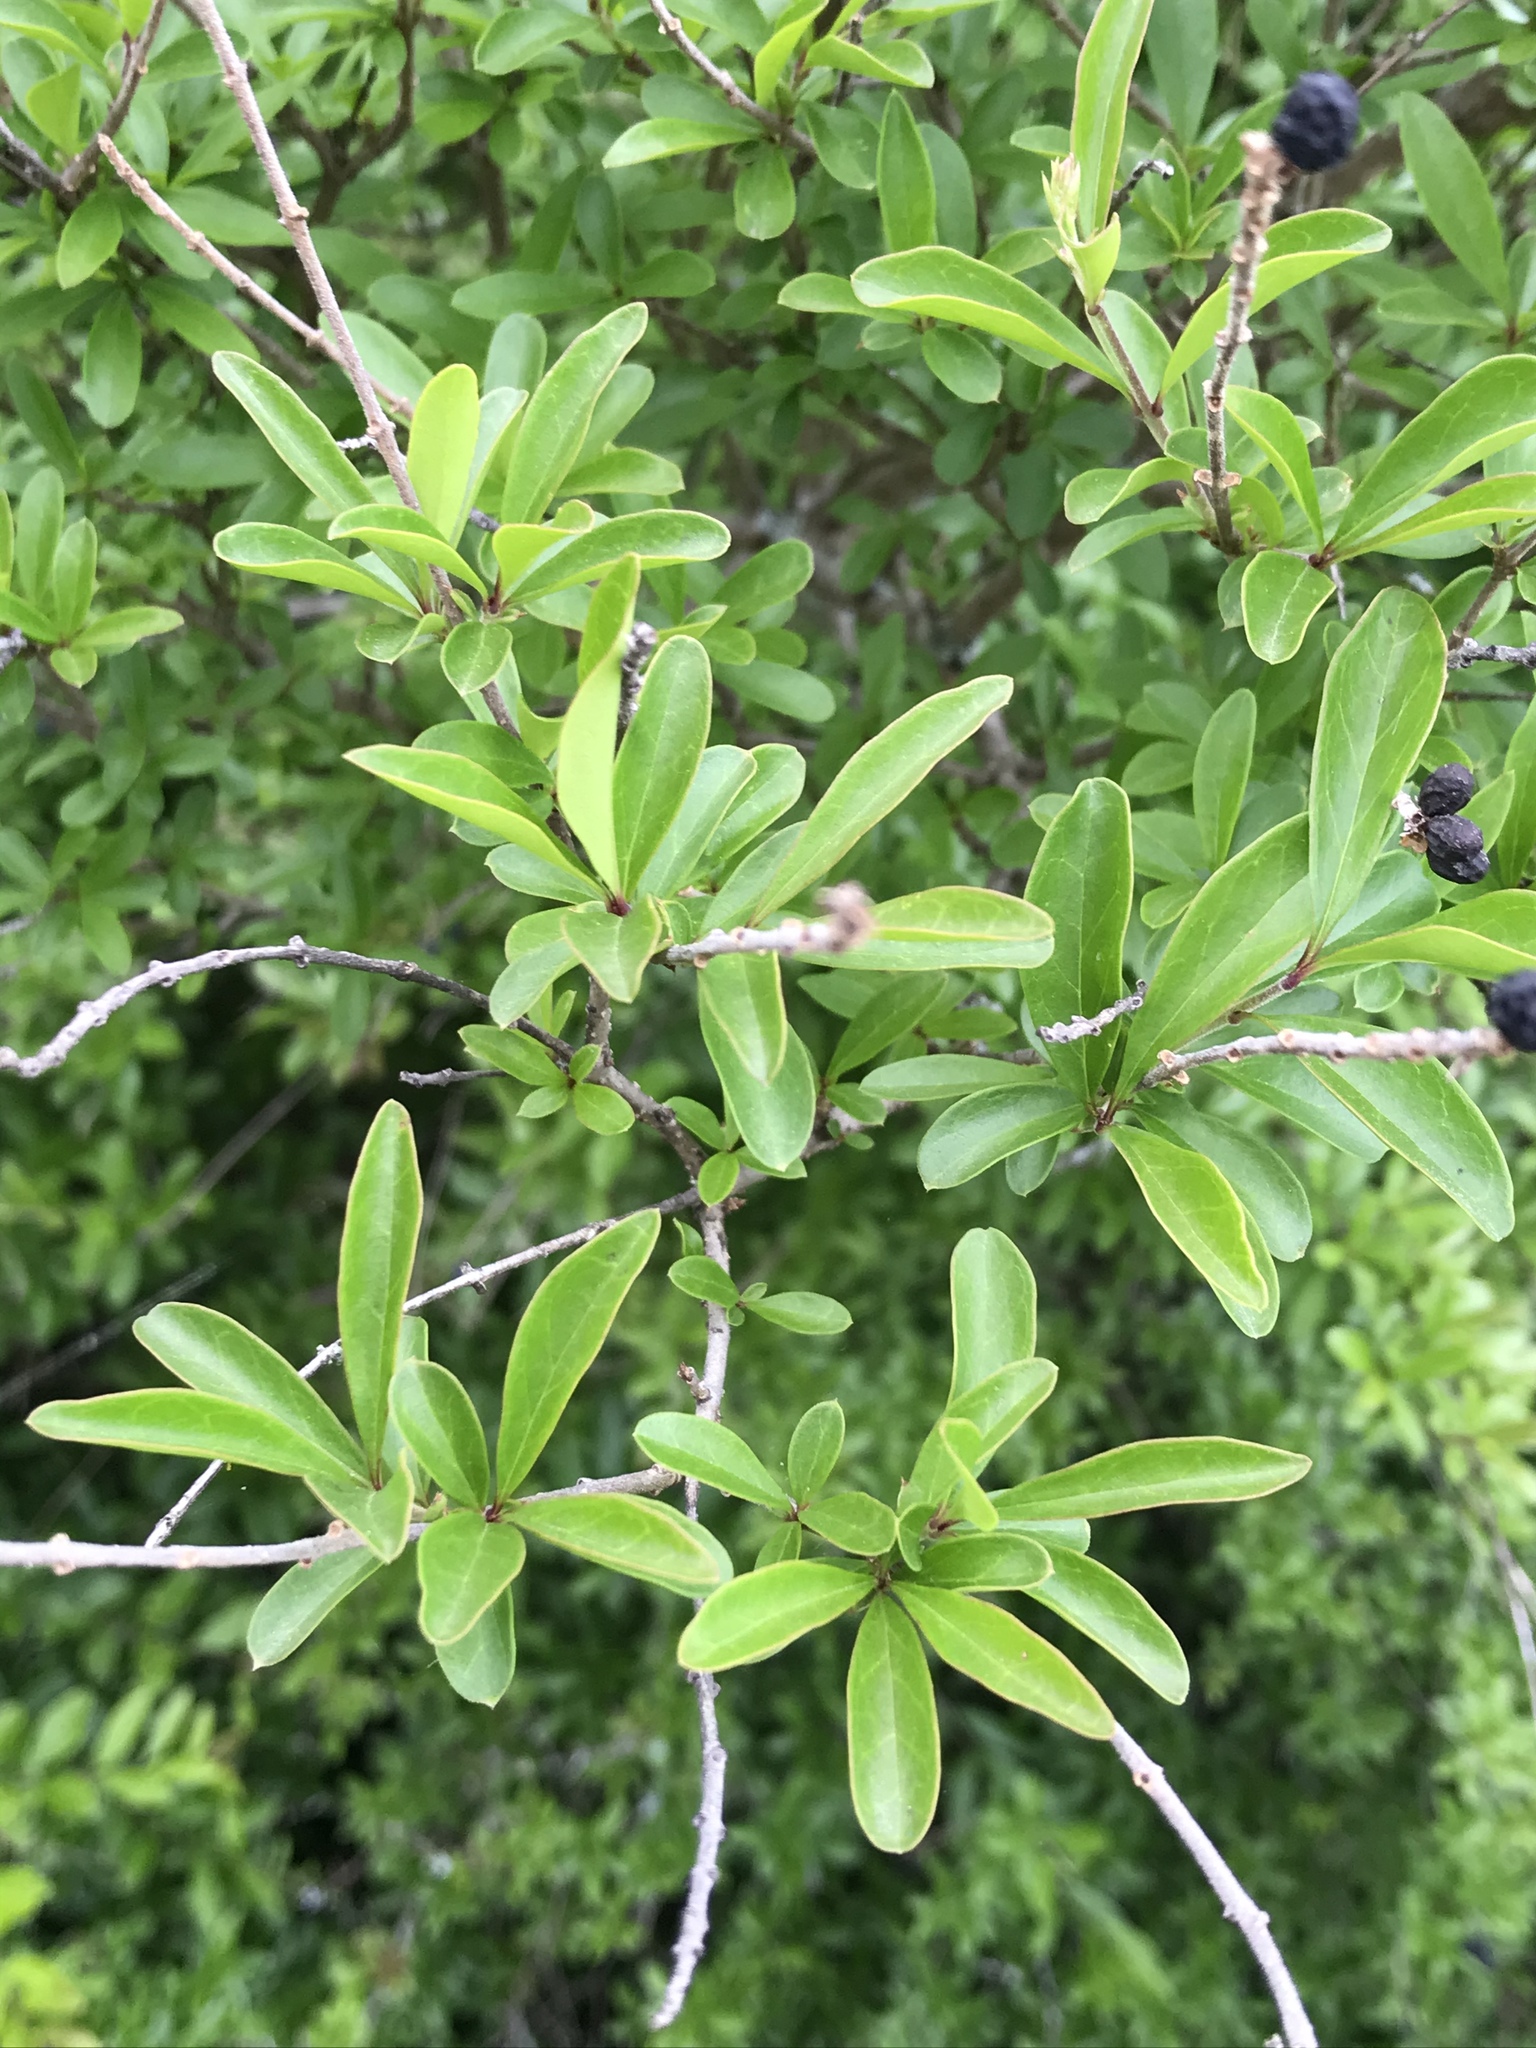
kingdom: Plantae
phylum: Tracheophyta
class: Magnoliopsida
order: Lamiales
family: Oleaceae
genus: Ligustrum
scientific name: Ligustrum quihoui
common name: Waxyleaf privet
